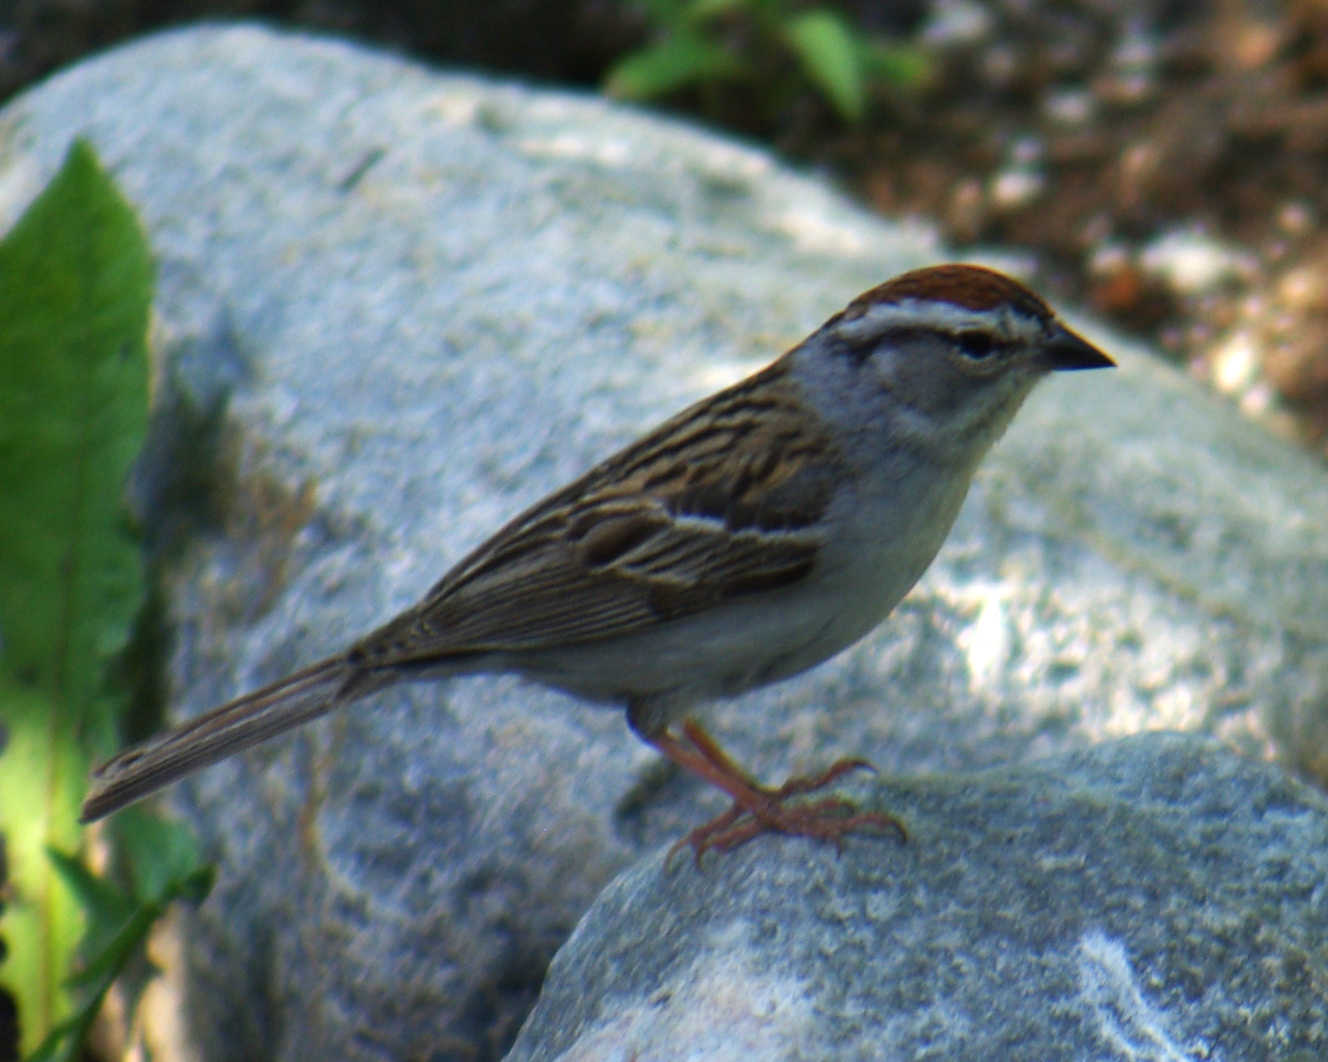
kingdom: Animalia
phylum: Chordata
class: Aves
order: Passeriformes
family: Passerellidae
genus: Spizella
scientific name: Spizella passerina
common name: Chipping sparrow
